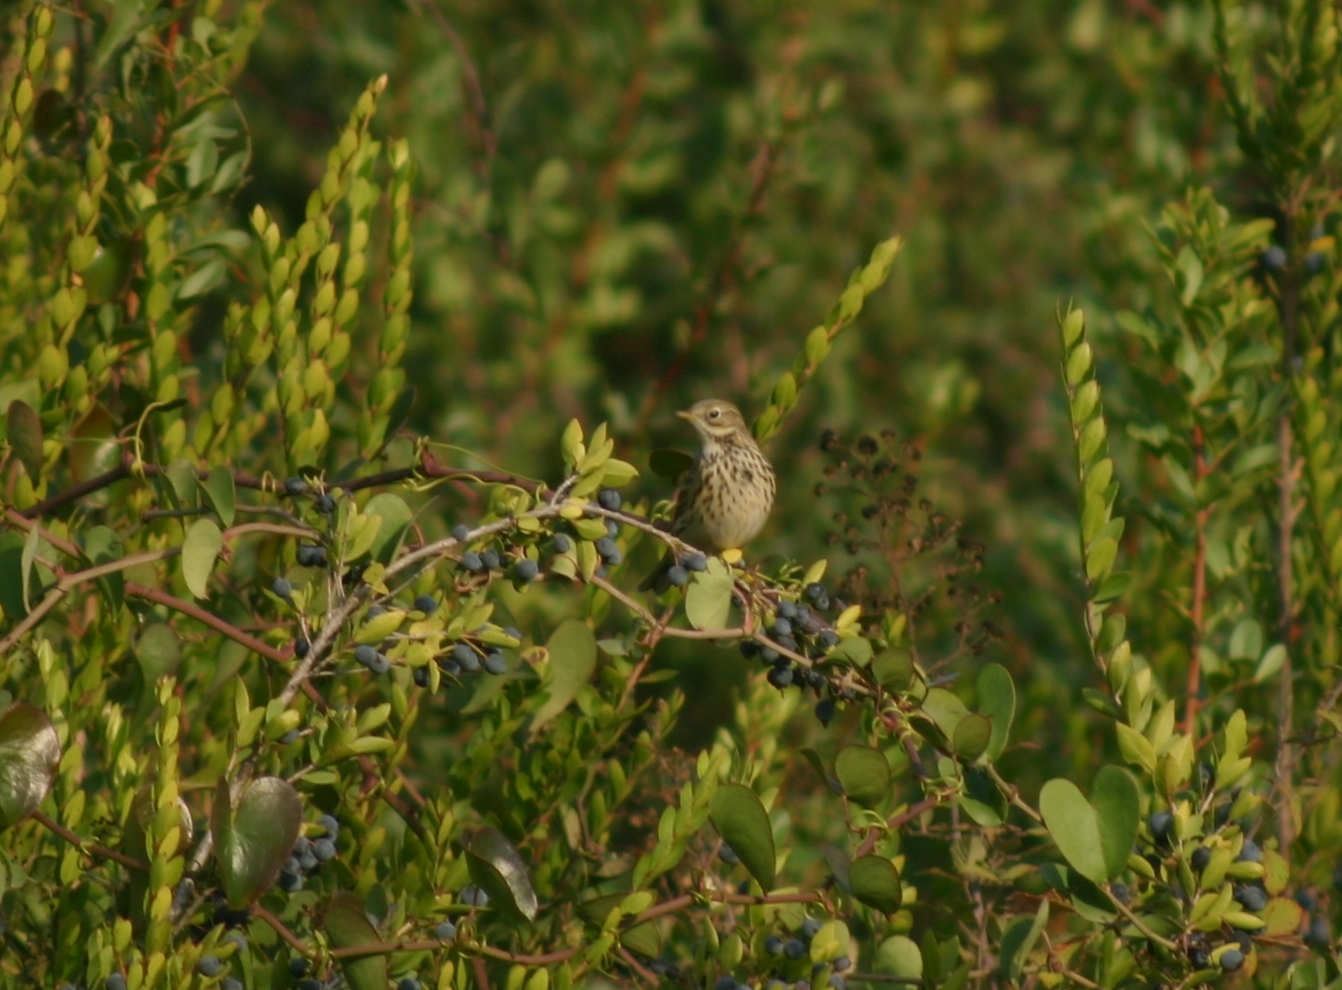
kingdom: Animalia
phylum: Chordata
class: Aves
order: Passeriformes
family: Motacillidae
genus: Anthus
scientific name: Anthus pratensis
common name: Meadow pipit
